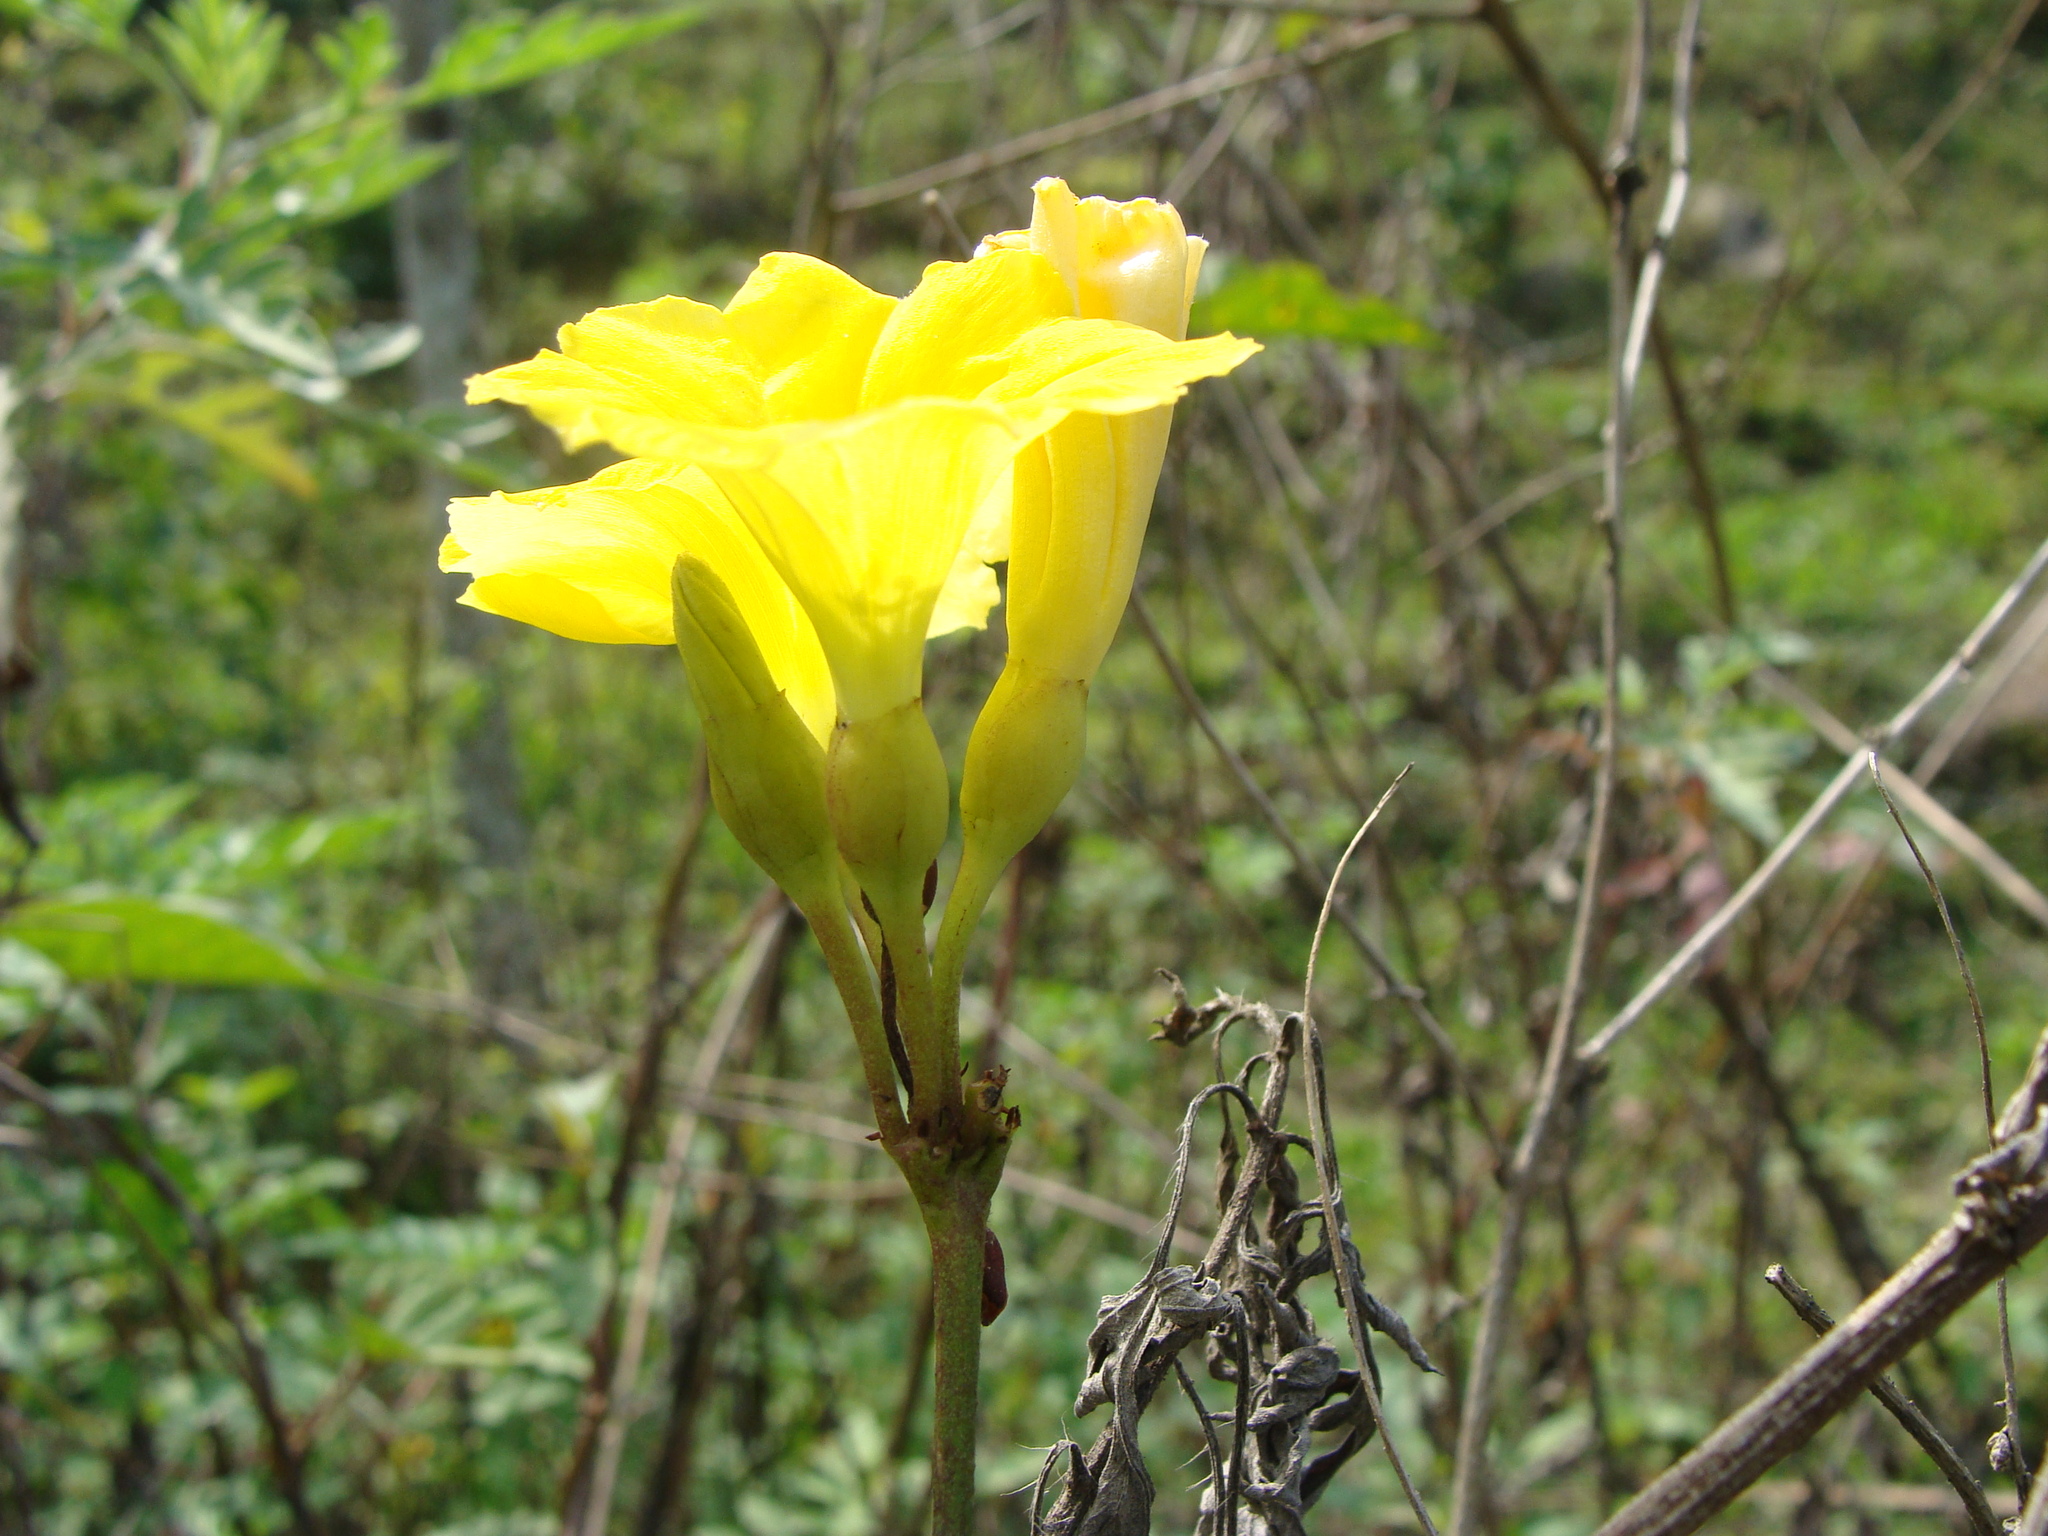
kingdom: Plantae
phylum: Tracheophyta
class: Magnoliopsida
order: Solanales
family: Convolvulaceae
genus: Camonea
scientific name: Camonea umbellata
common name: Hogvine
